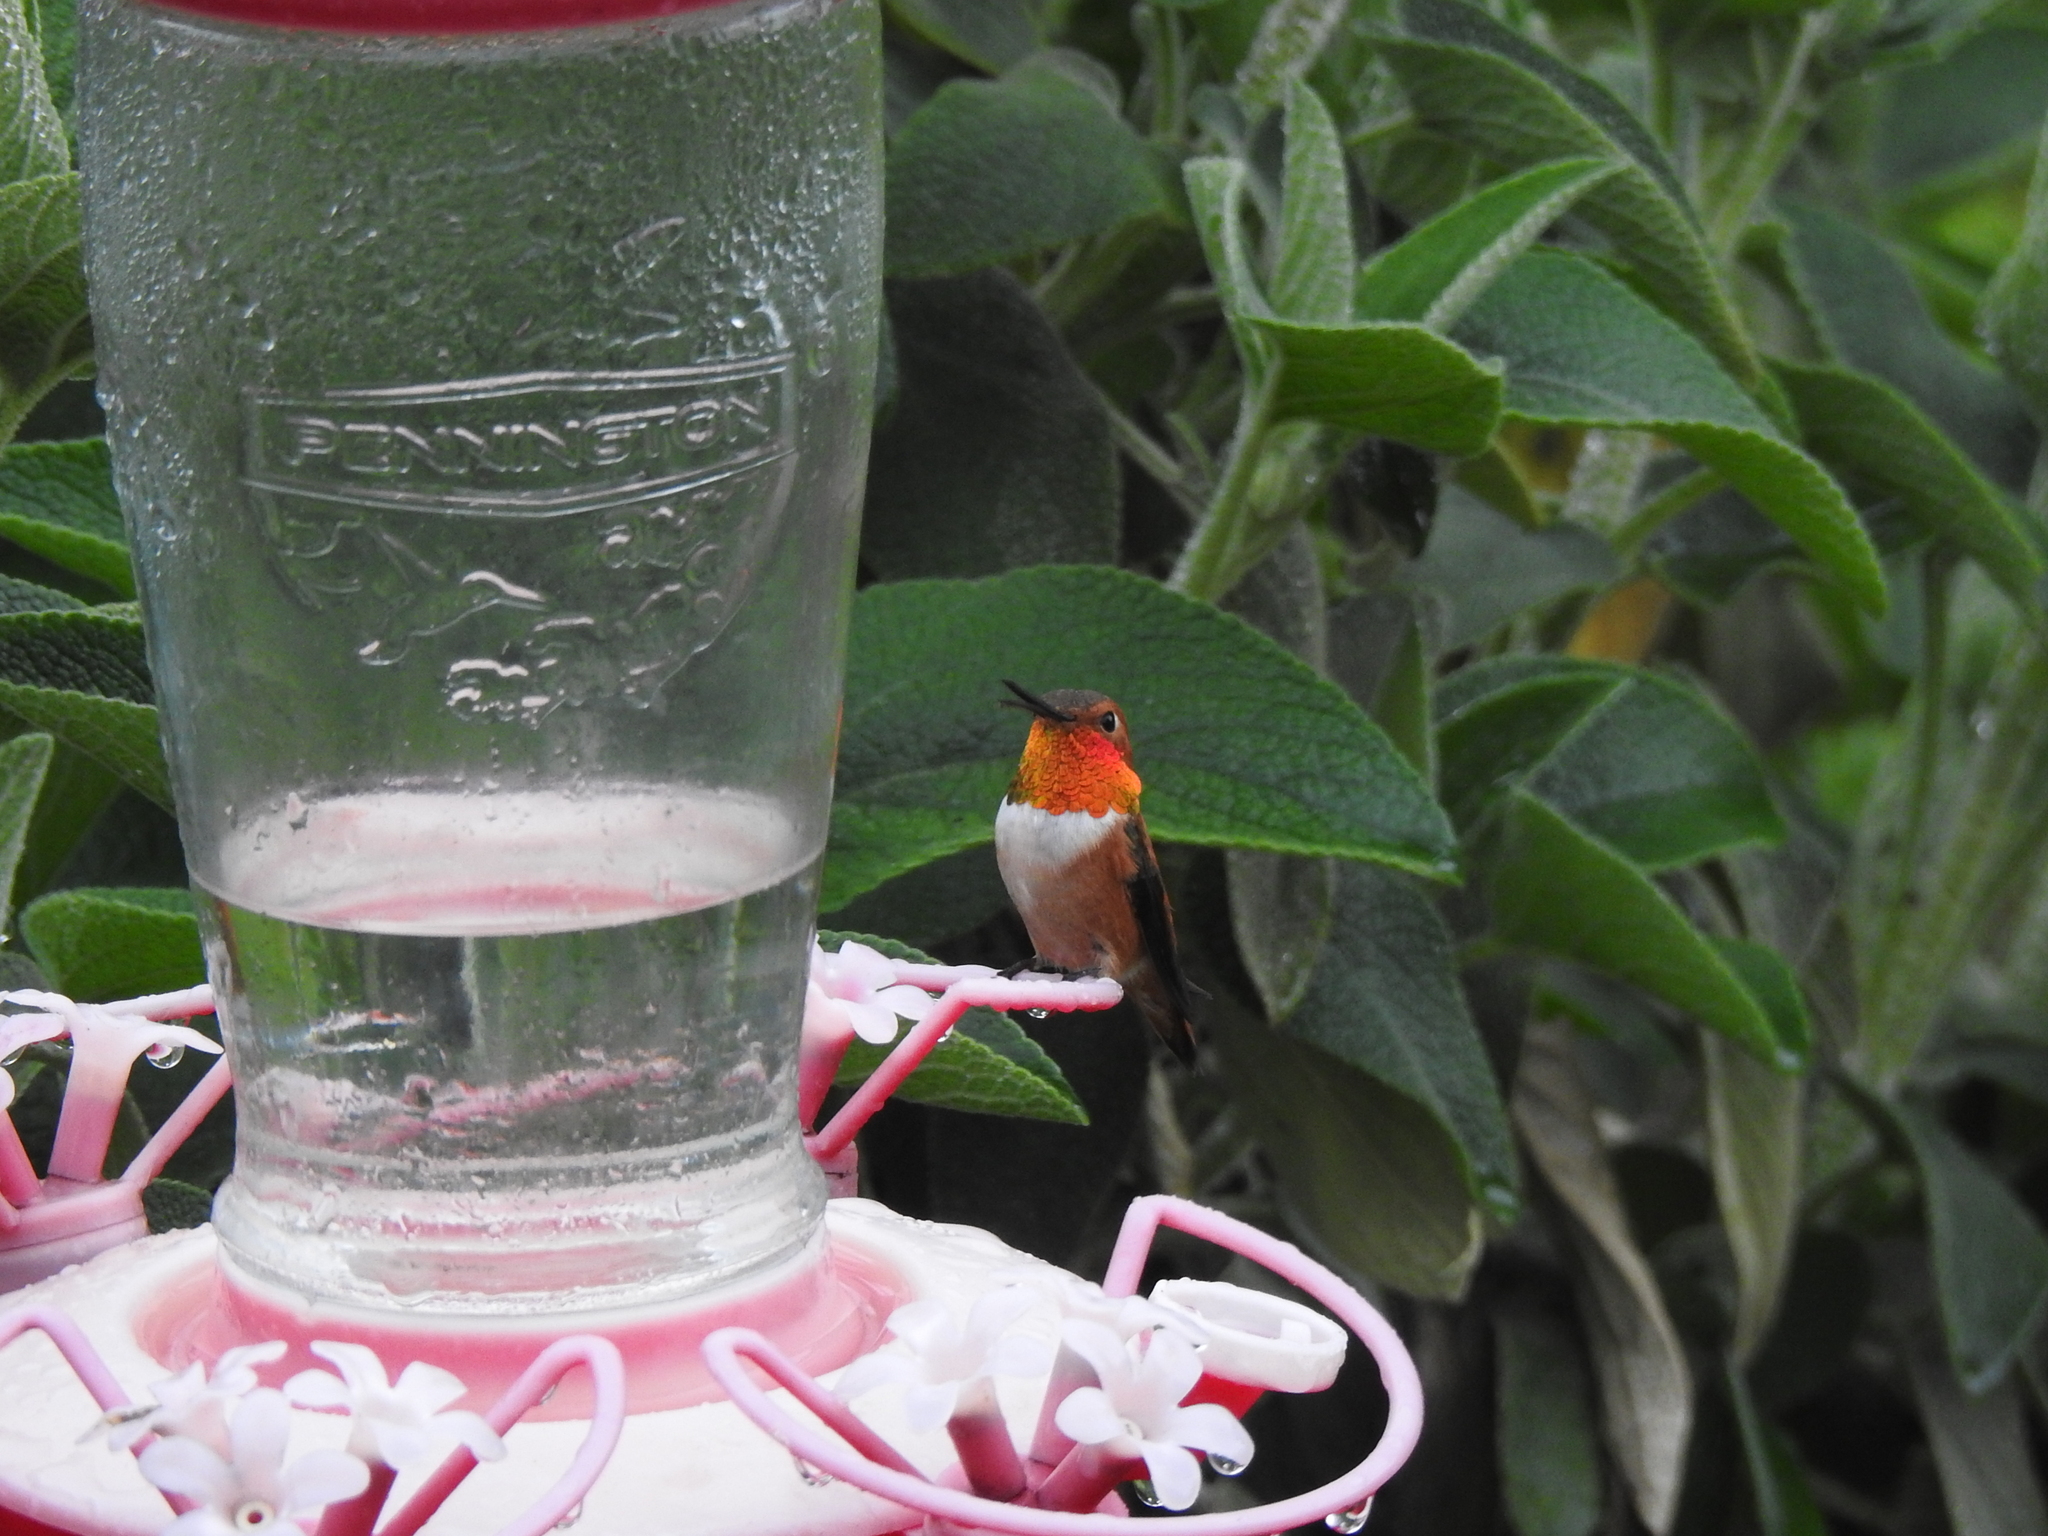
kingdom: Animalia
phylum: Chordata
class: Aves
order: Apodiformes
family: Trochilidae
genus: Selasphorus
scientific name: Selasphorus rufus
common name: Rufous hummingbird
